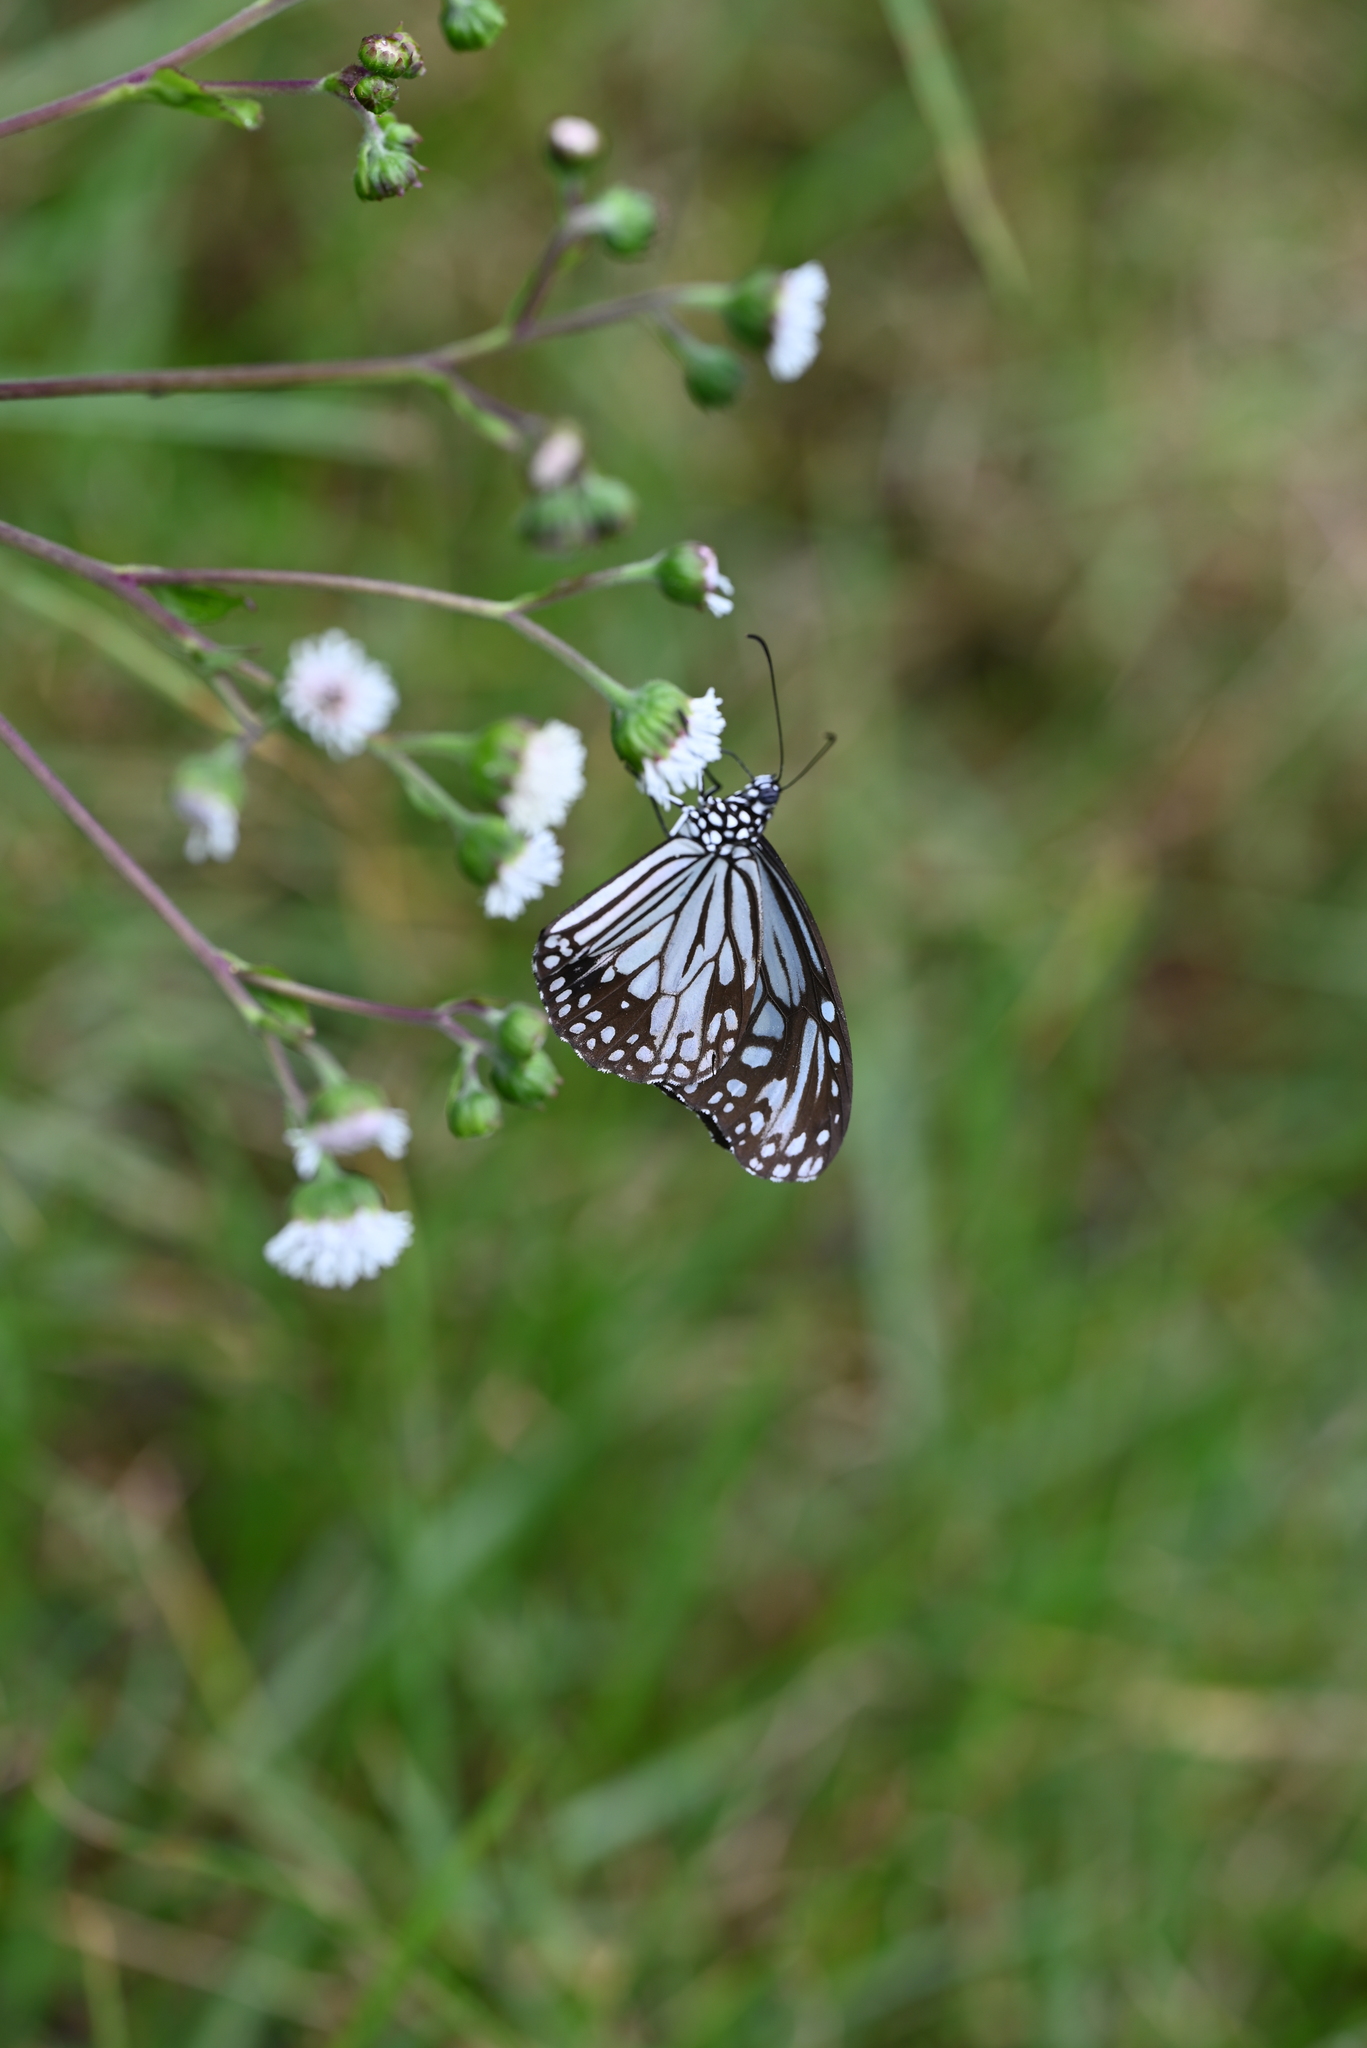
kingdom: Animalia
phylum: Arthropoda
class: Insecta
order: Lepidoptera
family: Nymphalidae
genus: Parantica
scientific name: Parantica aglea
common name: Glassy tiger
